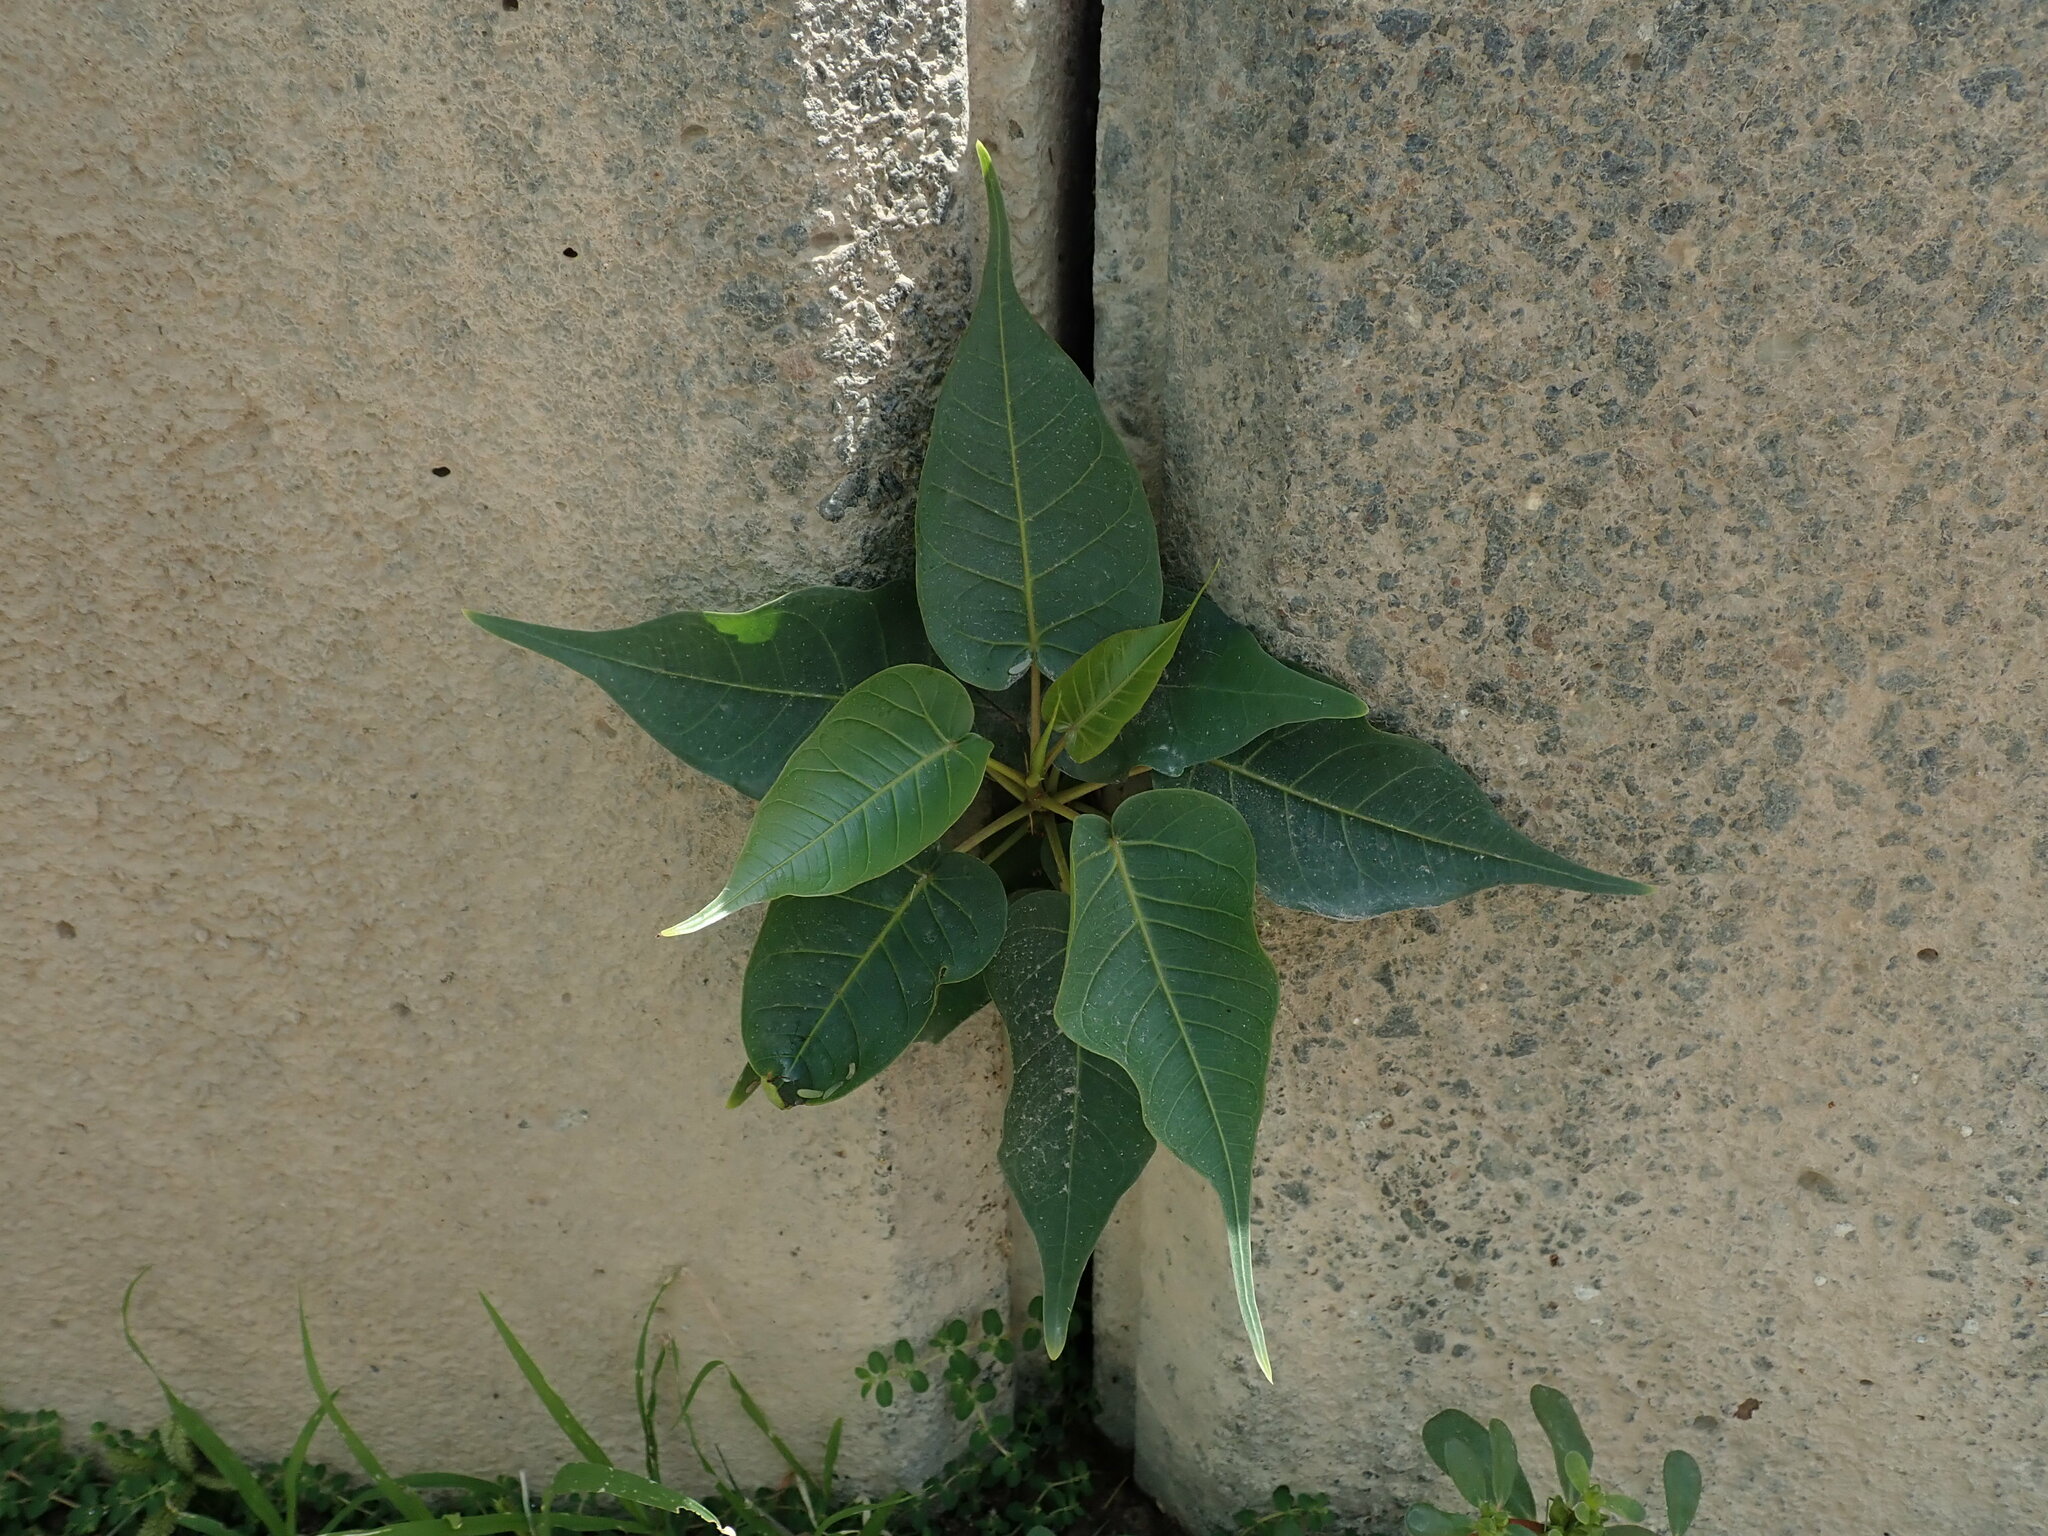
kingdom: Plantae
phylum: Tracheophyta
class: Magnoliopsida
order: Rosales
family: Moraceae
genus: Ficus
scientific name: Ficus religiosa
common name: Bodhi tree
